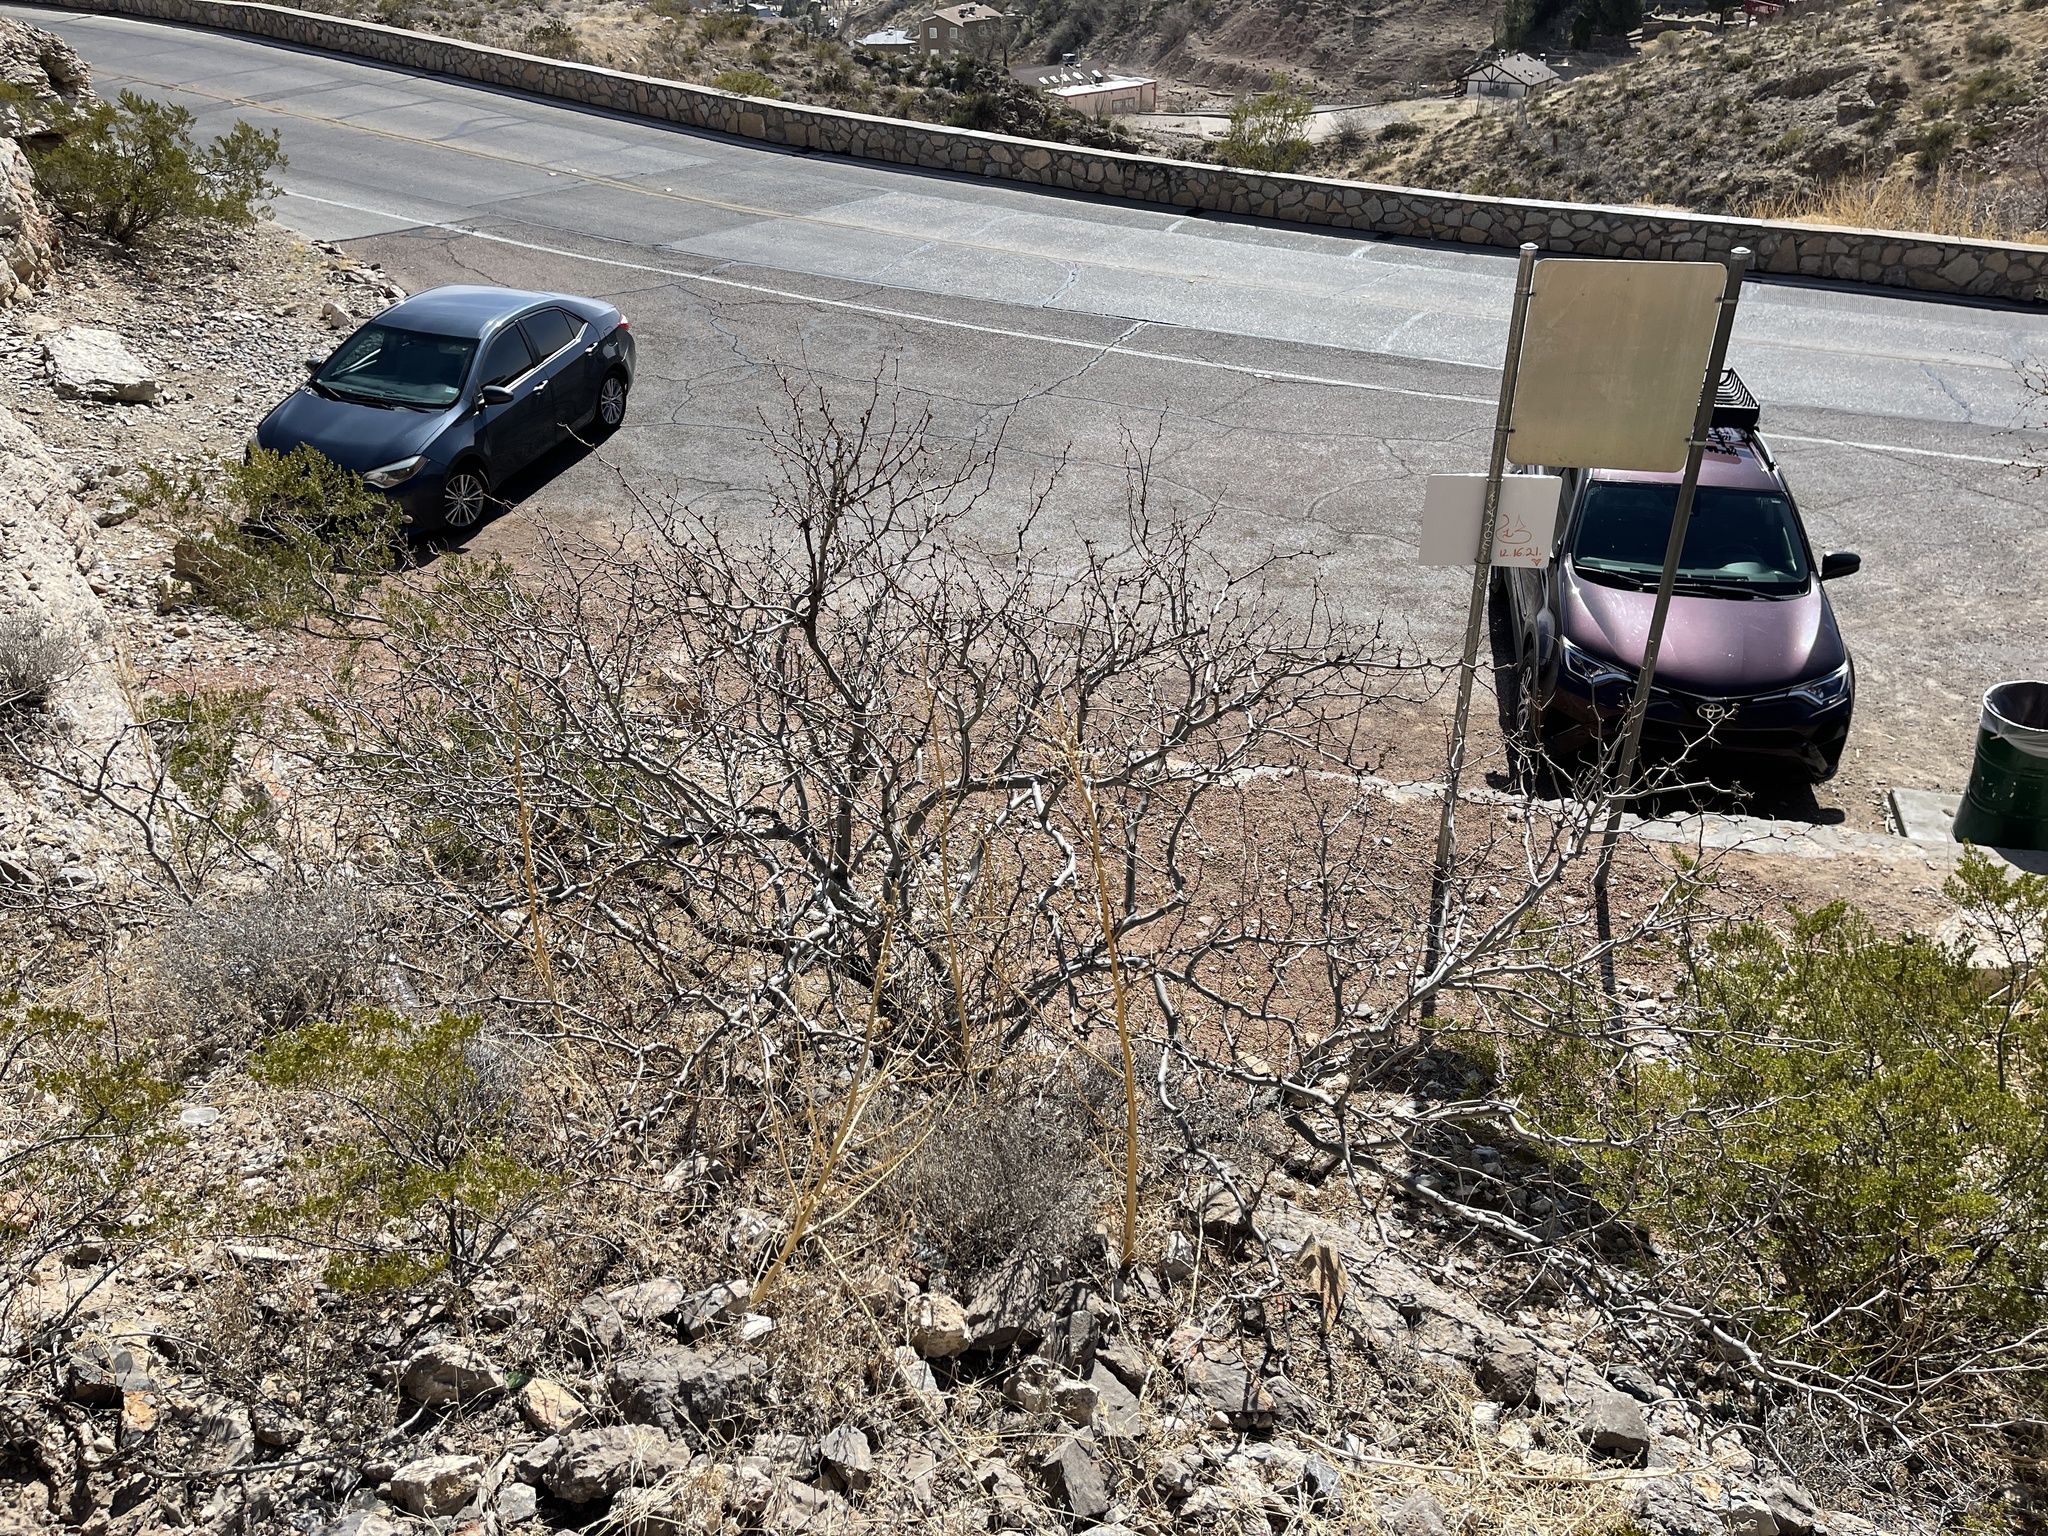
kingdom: Plantae
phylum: Tracheophyta
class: Magnoliopsida
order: Fabales
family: Fabaceae
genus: Prosopis
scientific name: Prosopis glandulosa
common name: Honey mesquite
